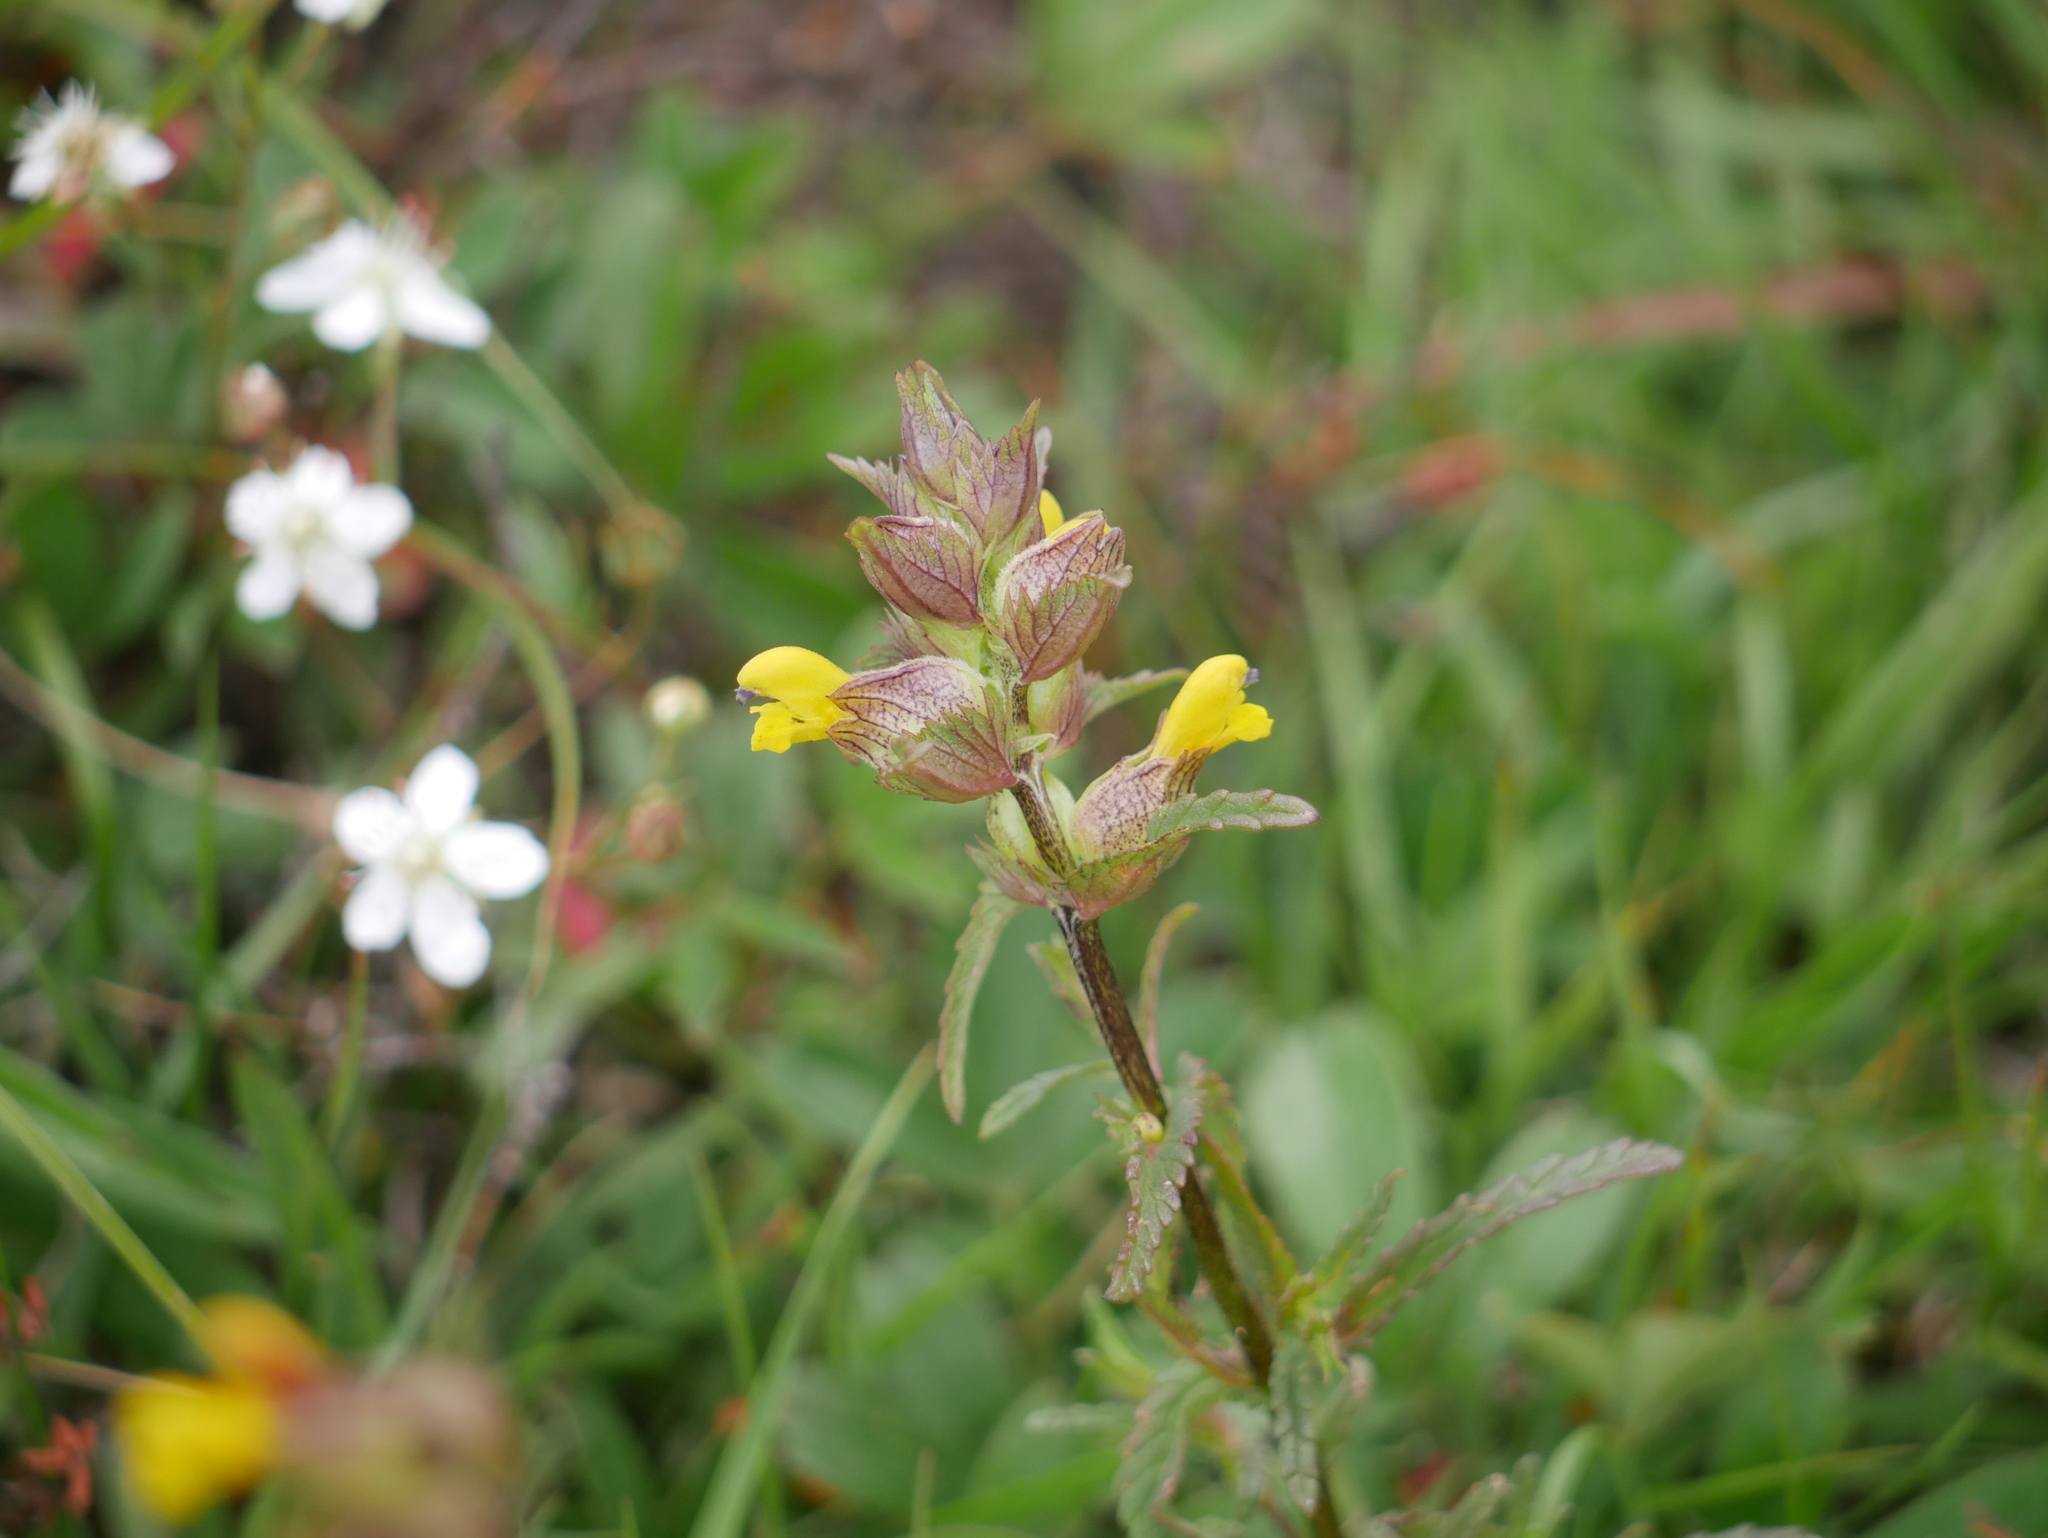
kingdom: Plantae
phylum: Tracheophyta
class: Magnoliopsida
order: Lamiales
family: Orobanchaceae
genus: Rhinanthus
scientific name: Rhinanthus minor
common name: Yellow-rattle
